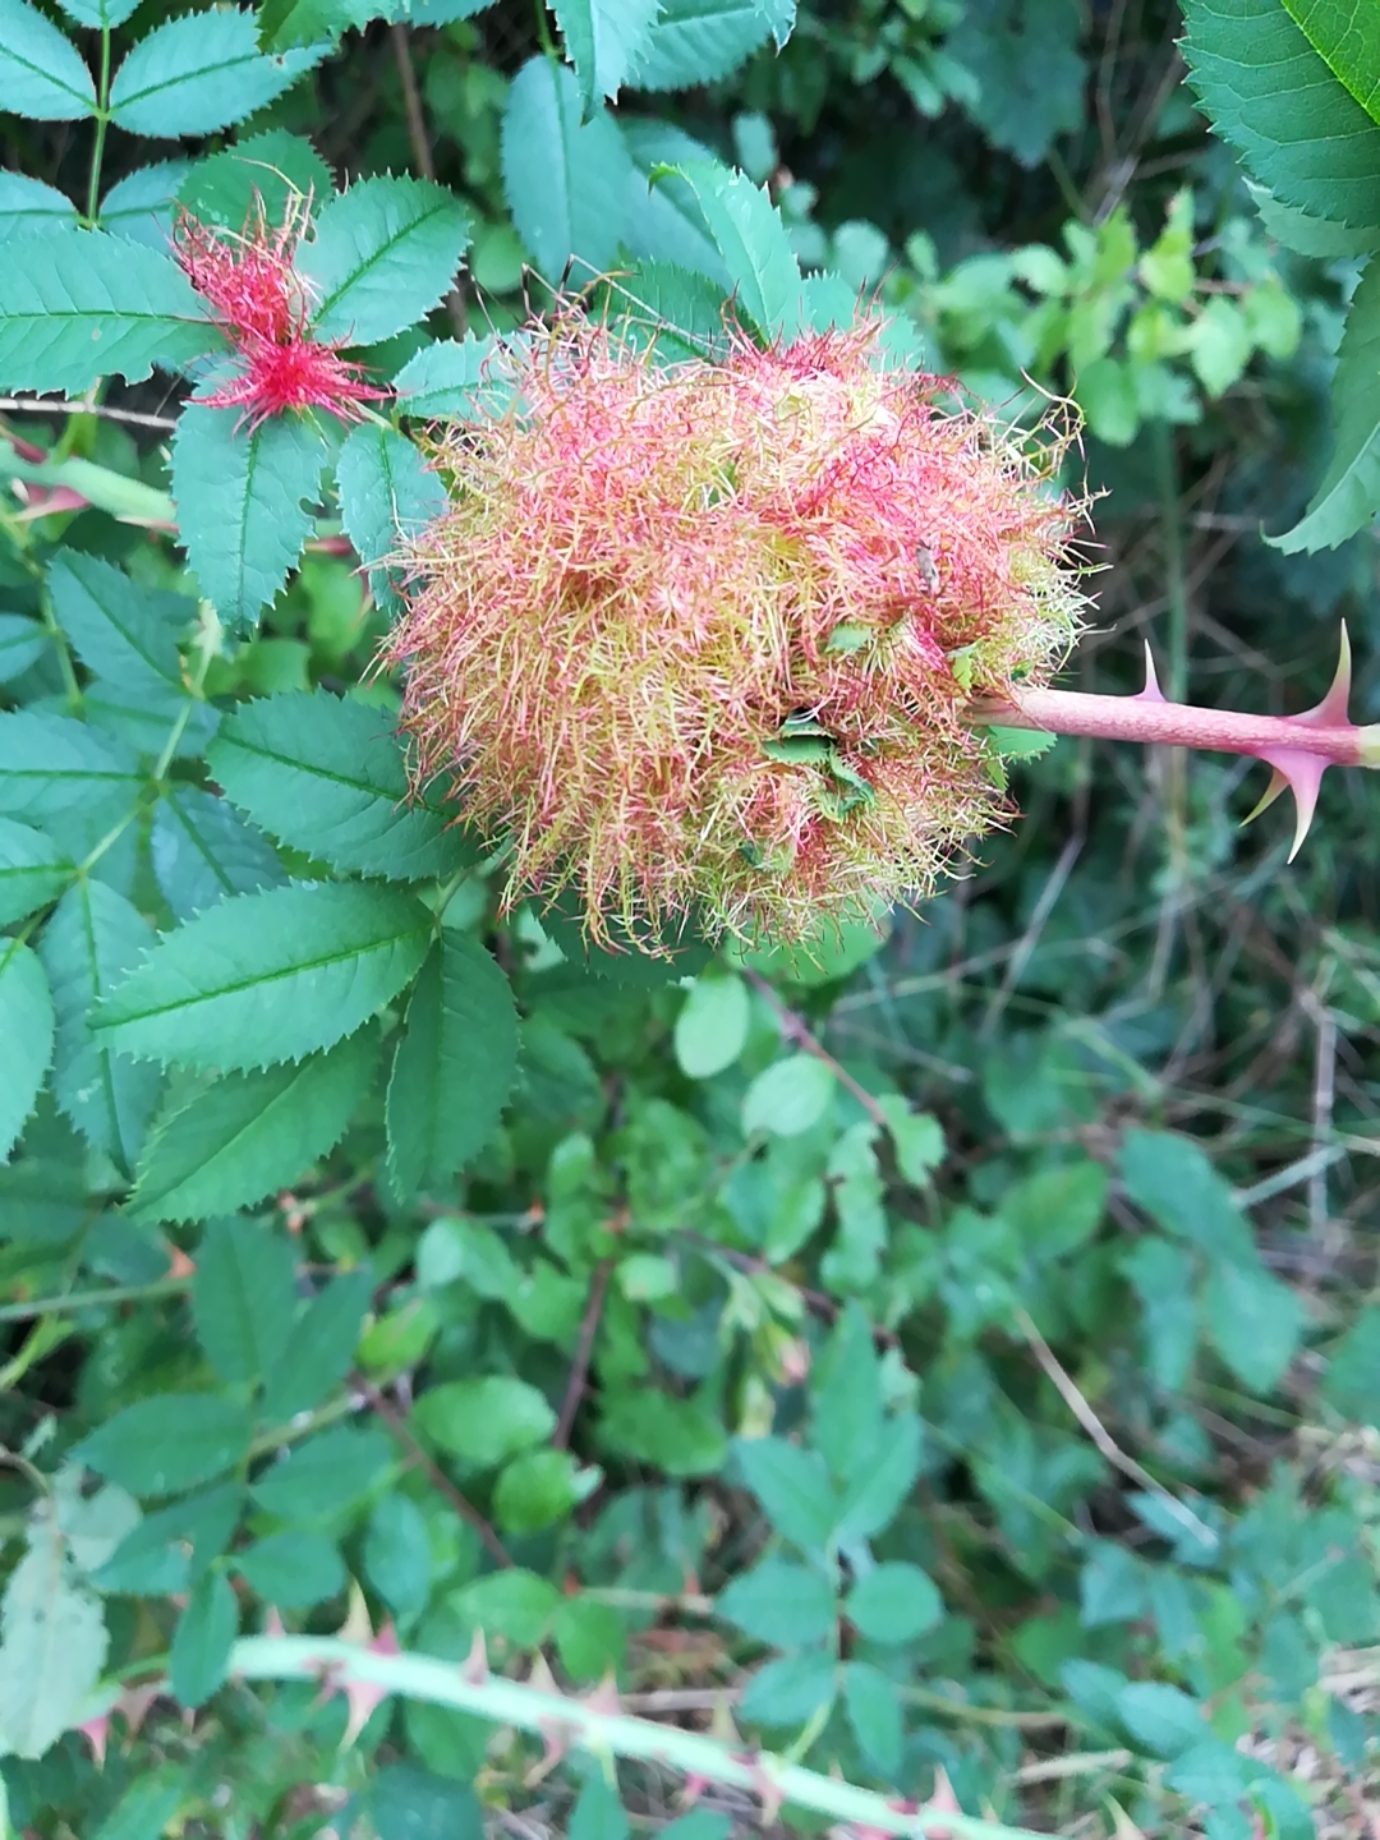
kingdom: Animalia
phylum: Arthropoda
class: Insecta
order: Hymenoptera
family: Cynipidae
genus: Diplolepis
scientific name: Diplolepis rosae
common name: Bedeguar gall
